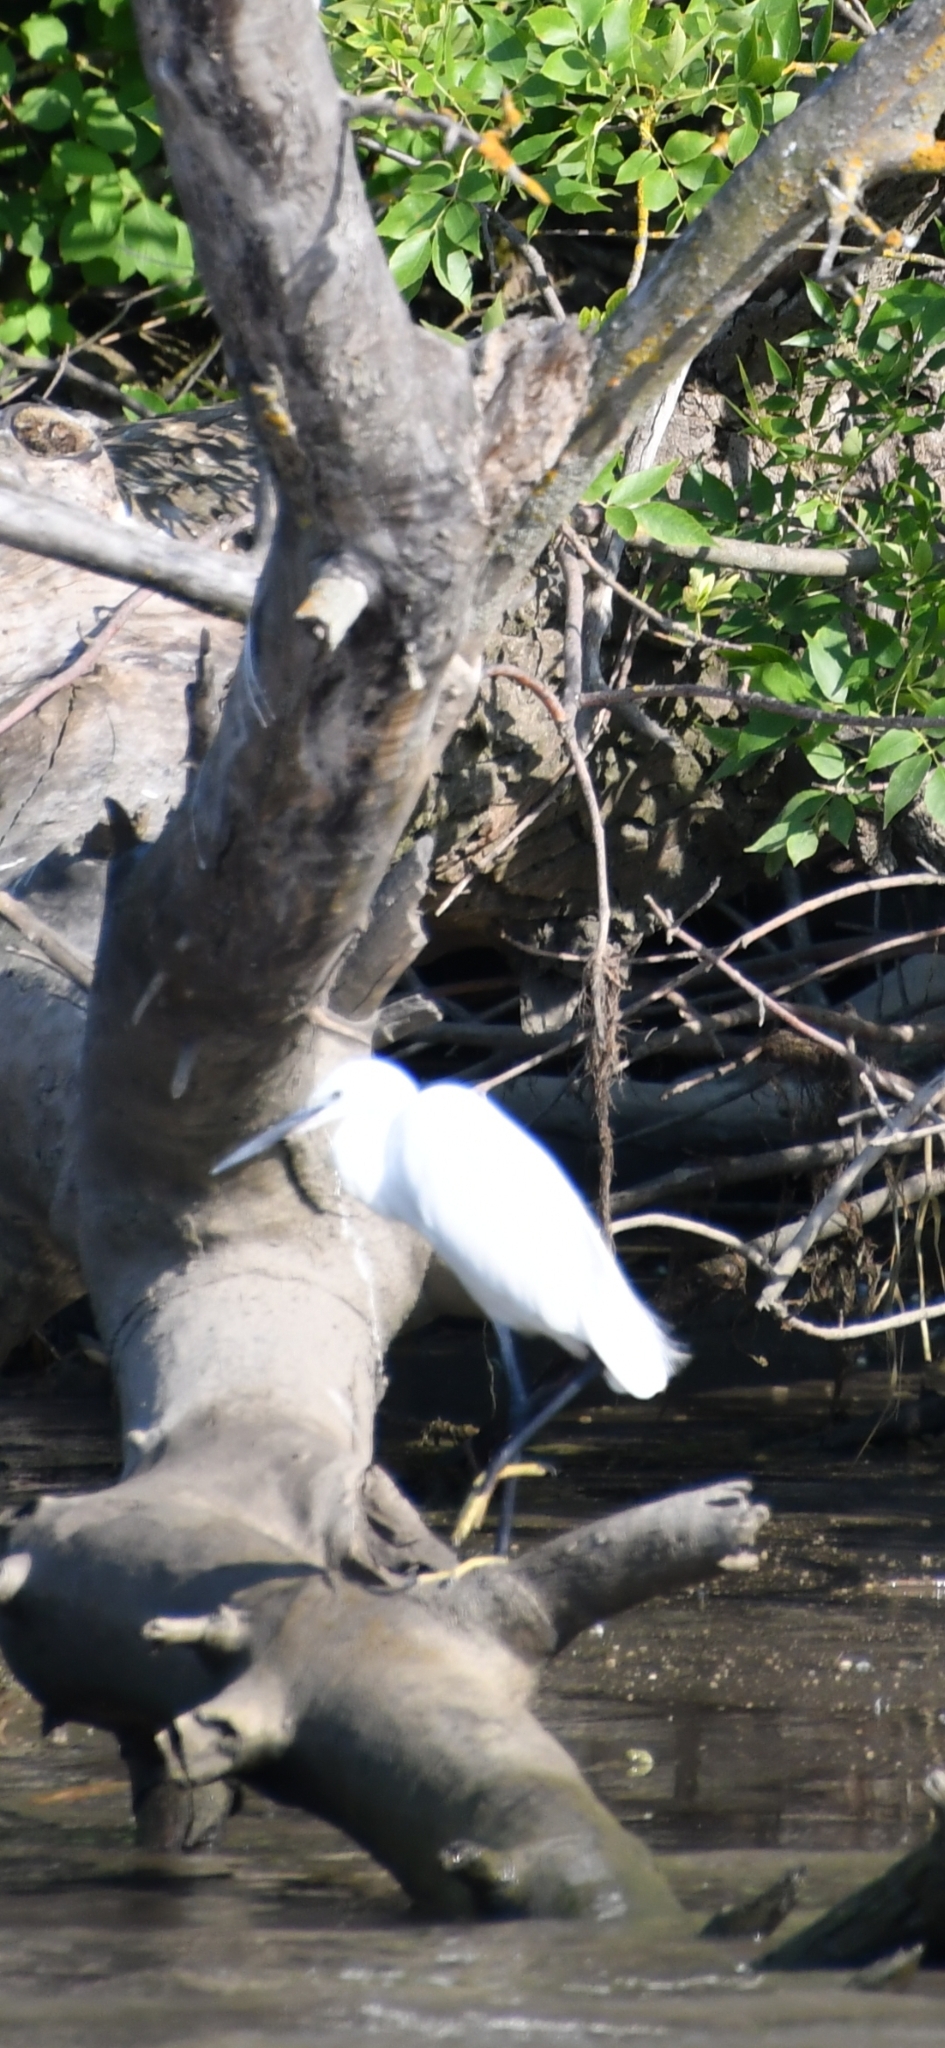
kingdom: Animalia
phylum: Chordata
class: Aves
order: Pelecaniformes
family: Ardeidae
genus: Egretta
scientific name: Egretta garzetta
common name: Little egret
